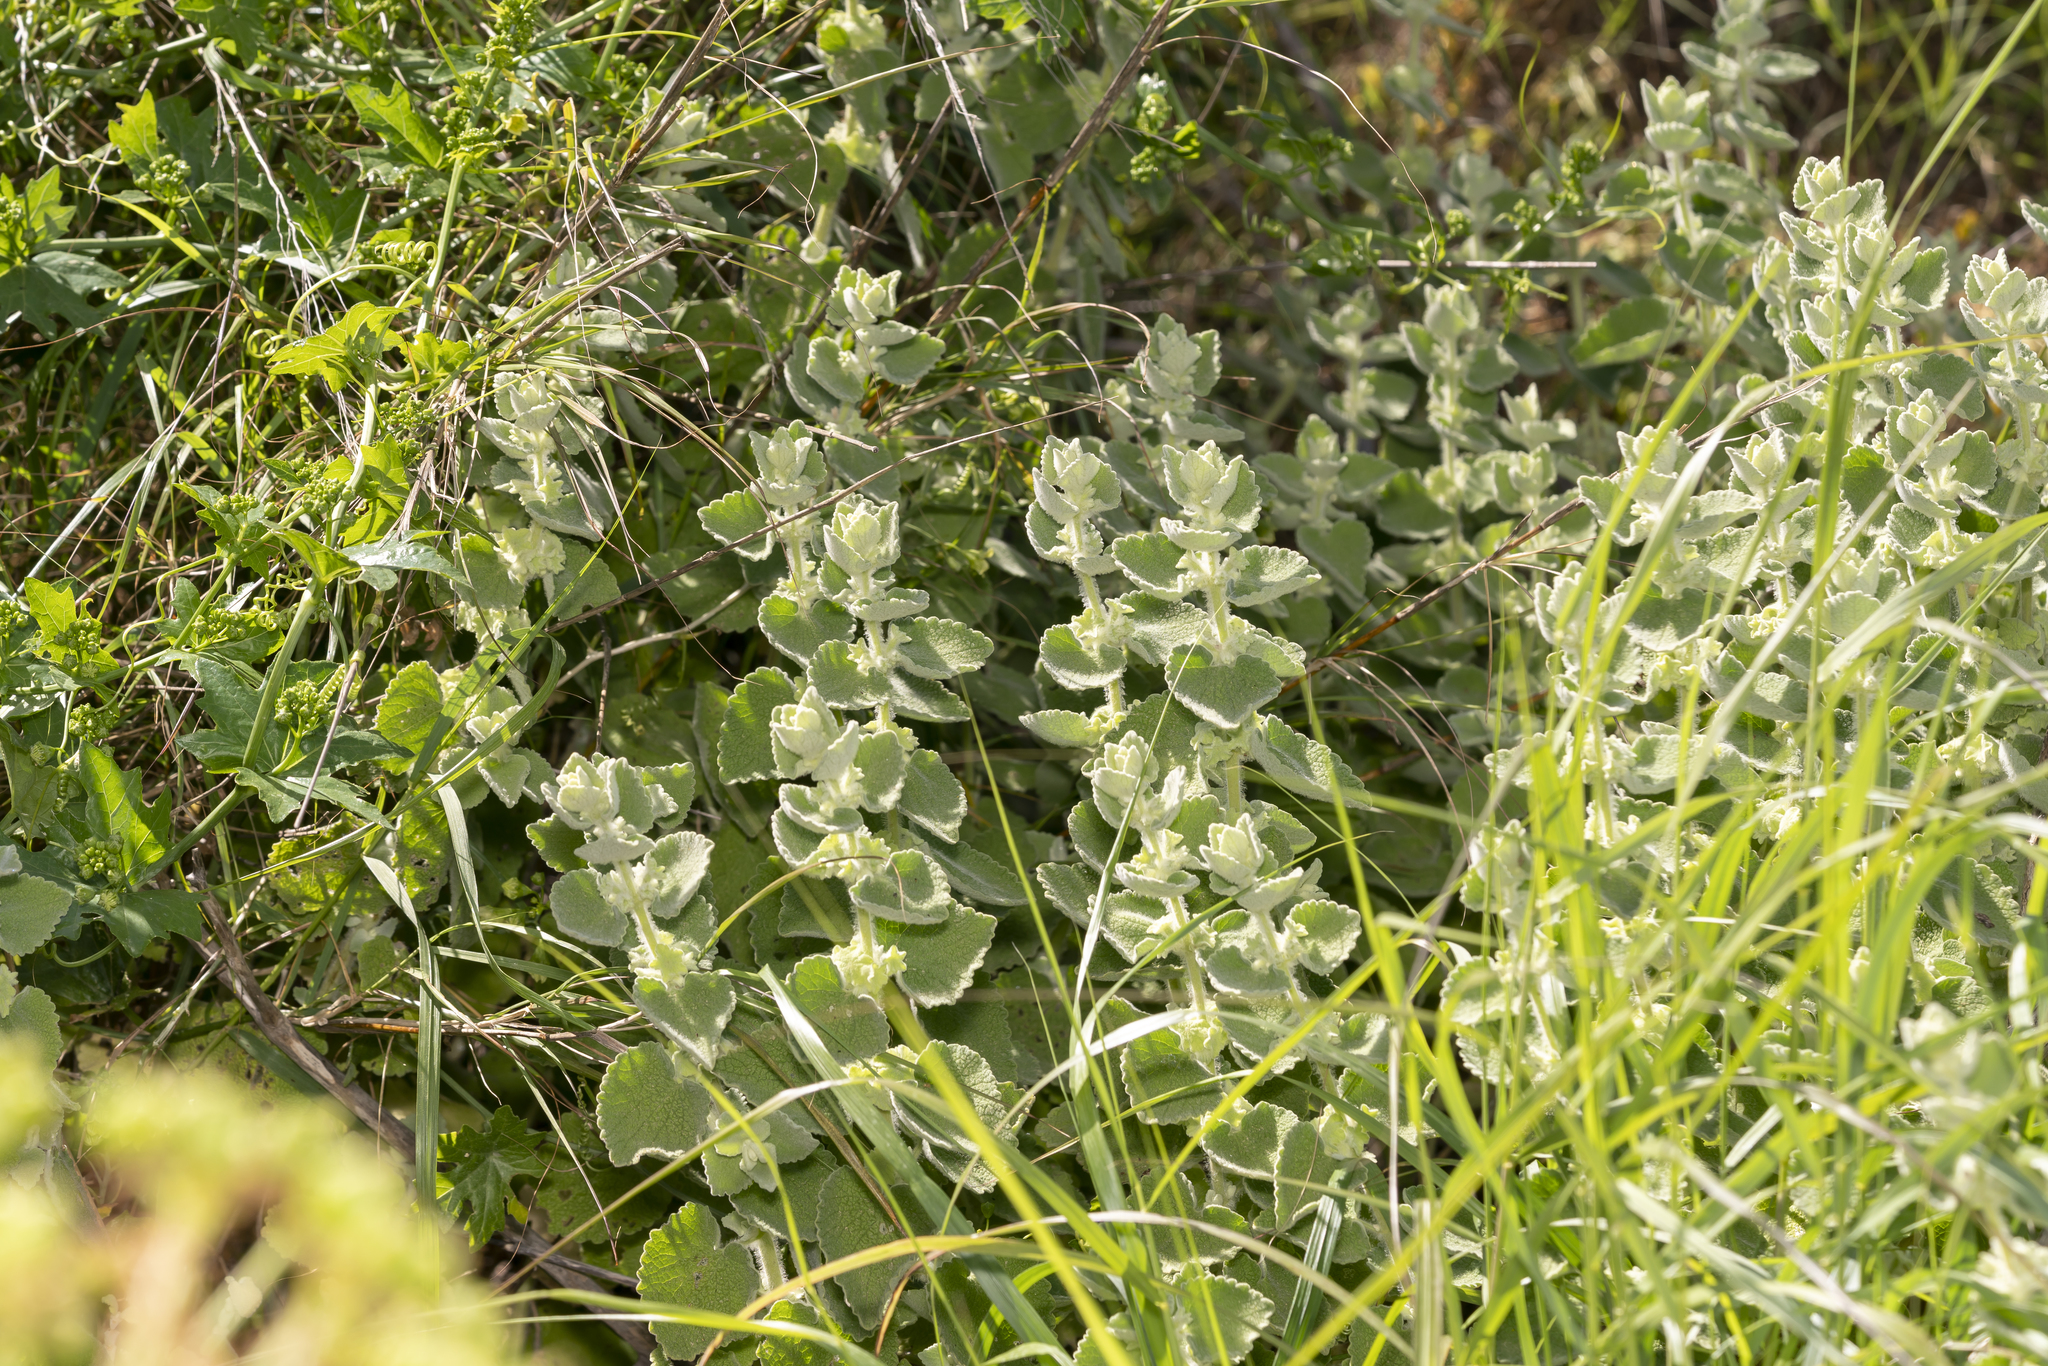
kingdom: Plantae
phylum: Tracheophyta
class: Magnoliopsida
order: Lamiales
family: Lamiaceae
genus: Pseudodictamnus
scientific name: Pseudodictamnus acetabulosus
